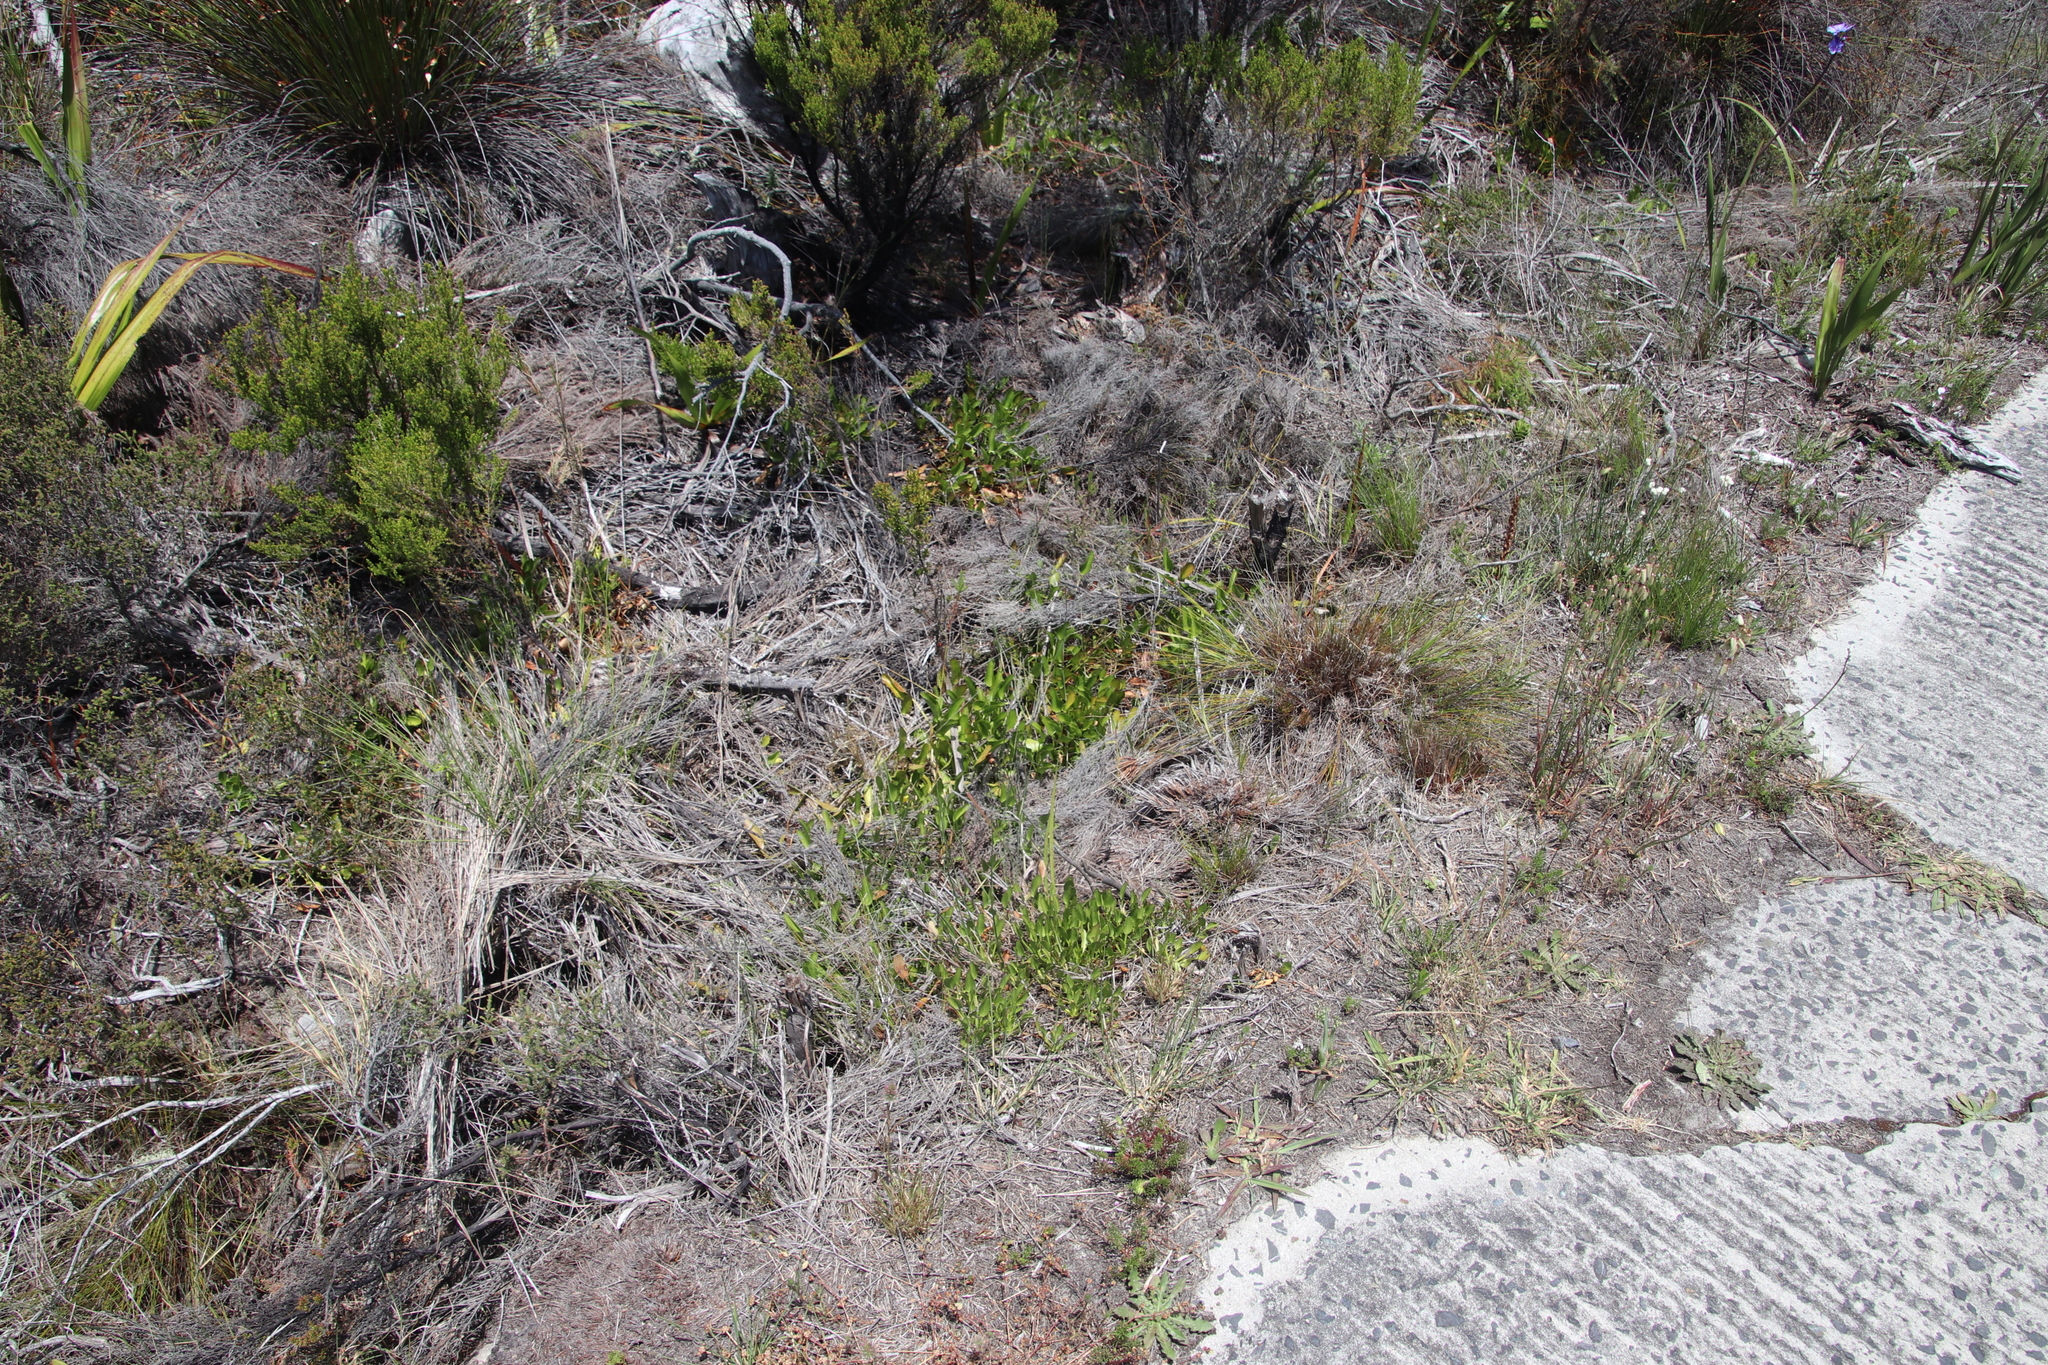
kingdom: Plantae
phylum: Tracheophyta
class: Magnoliopsida
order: Asterales
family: Menyanthaceae
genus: Villarsia
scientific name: Villarsia manningiana
